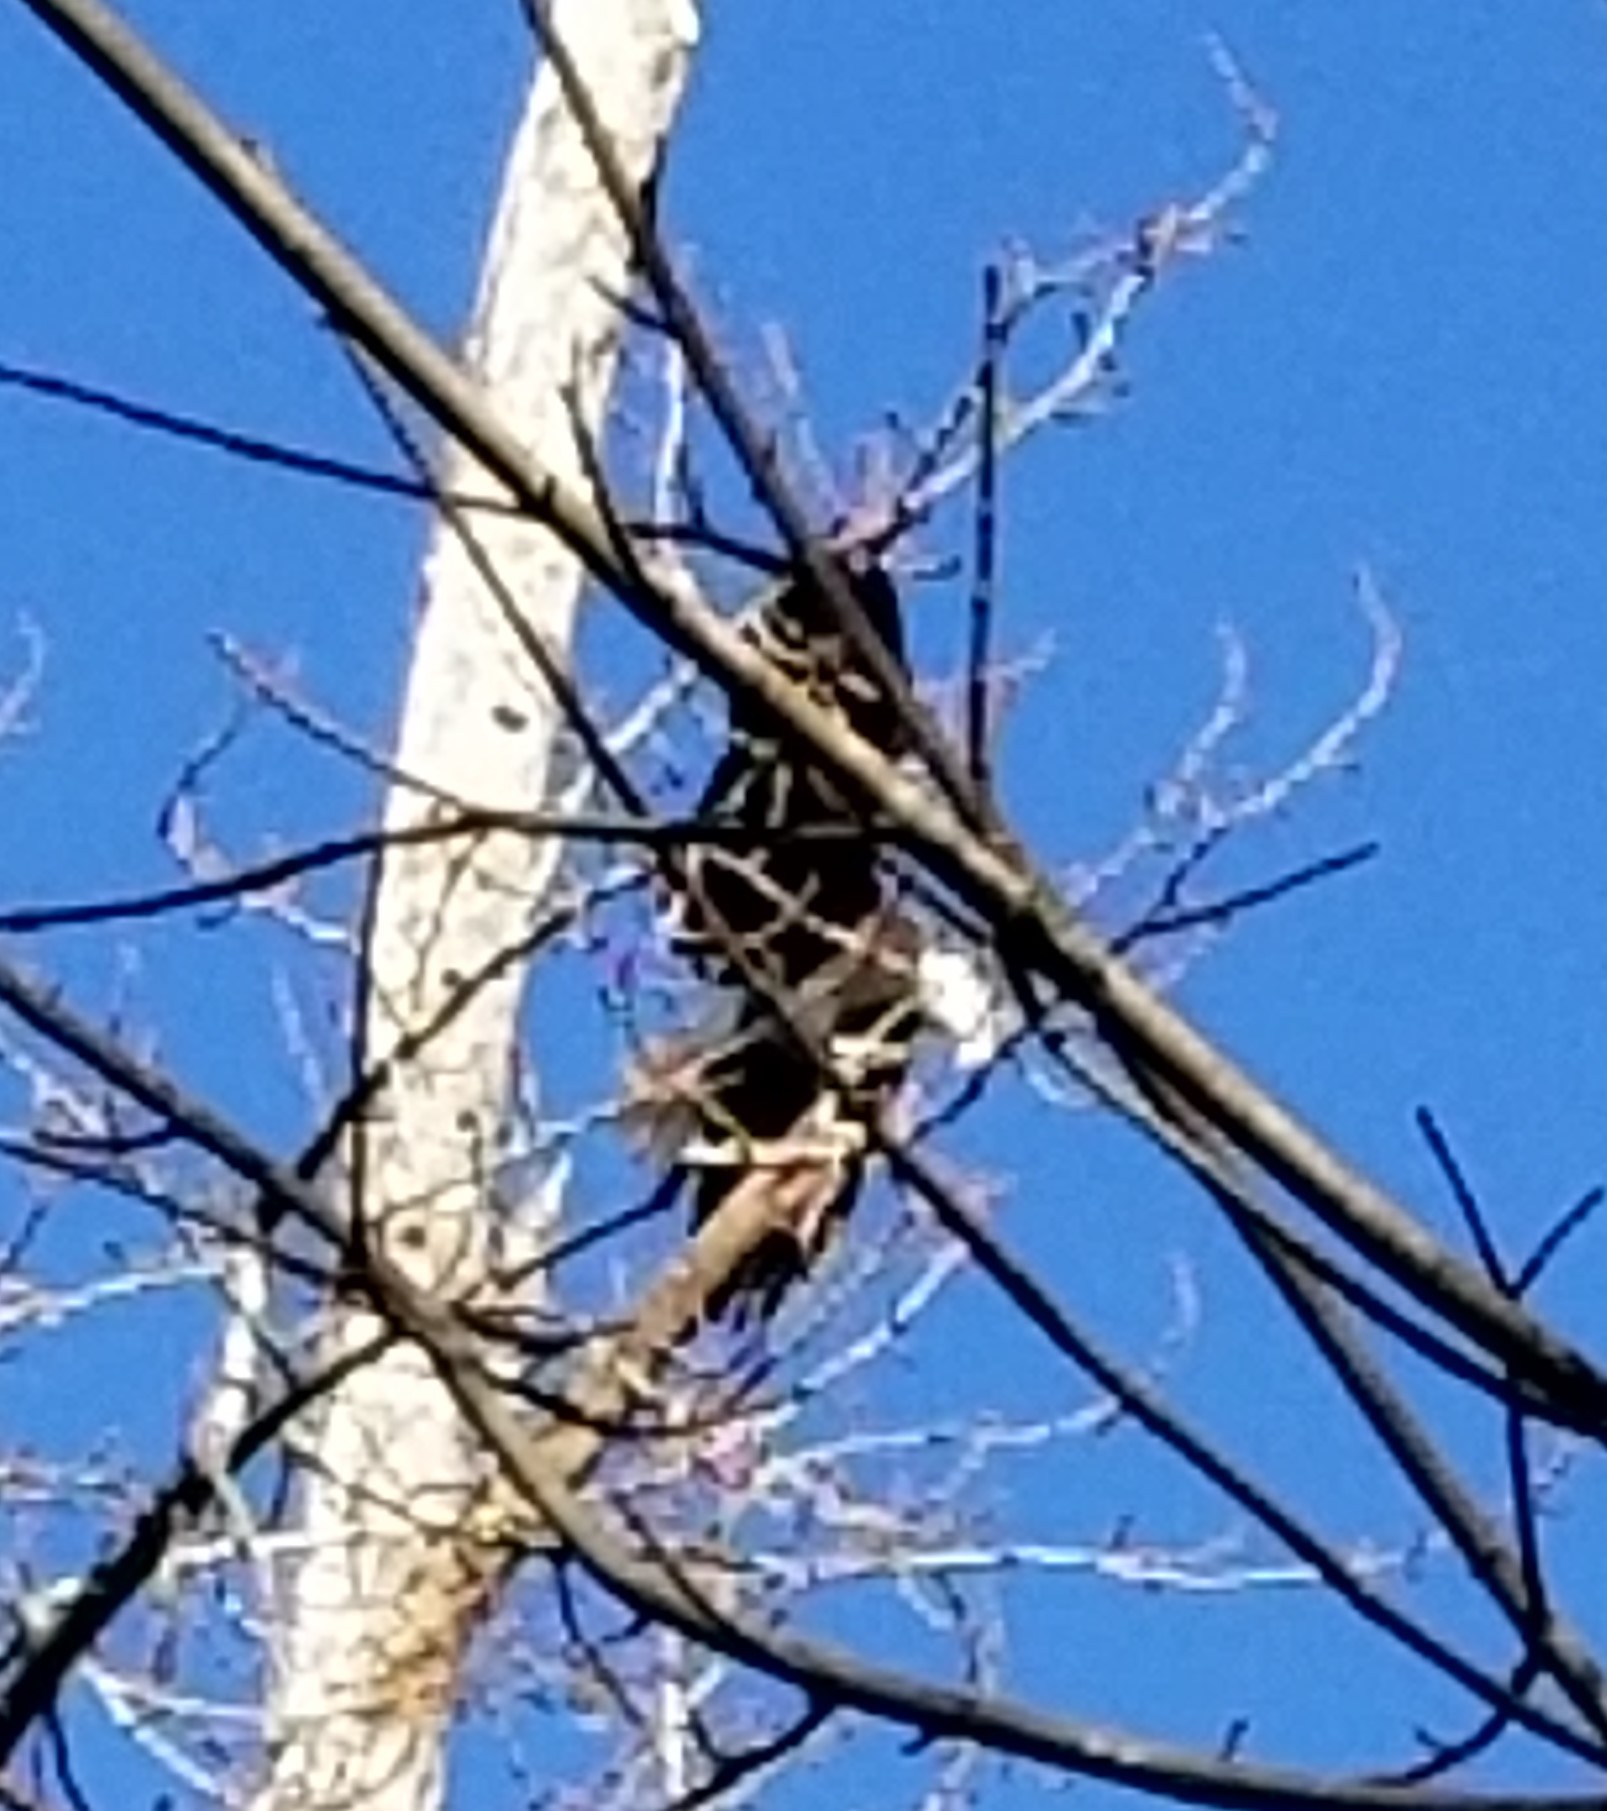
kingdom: Animalia
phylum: Chordata
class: Aves
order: Accipitriformes
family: Accipitridae
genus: Haliaeetus
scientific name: Haliaeetus leucocephalus
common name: Bald eagle
